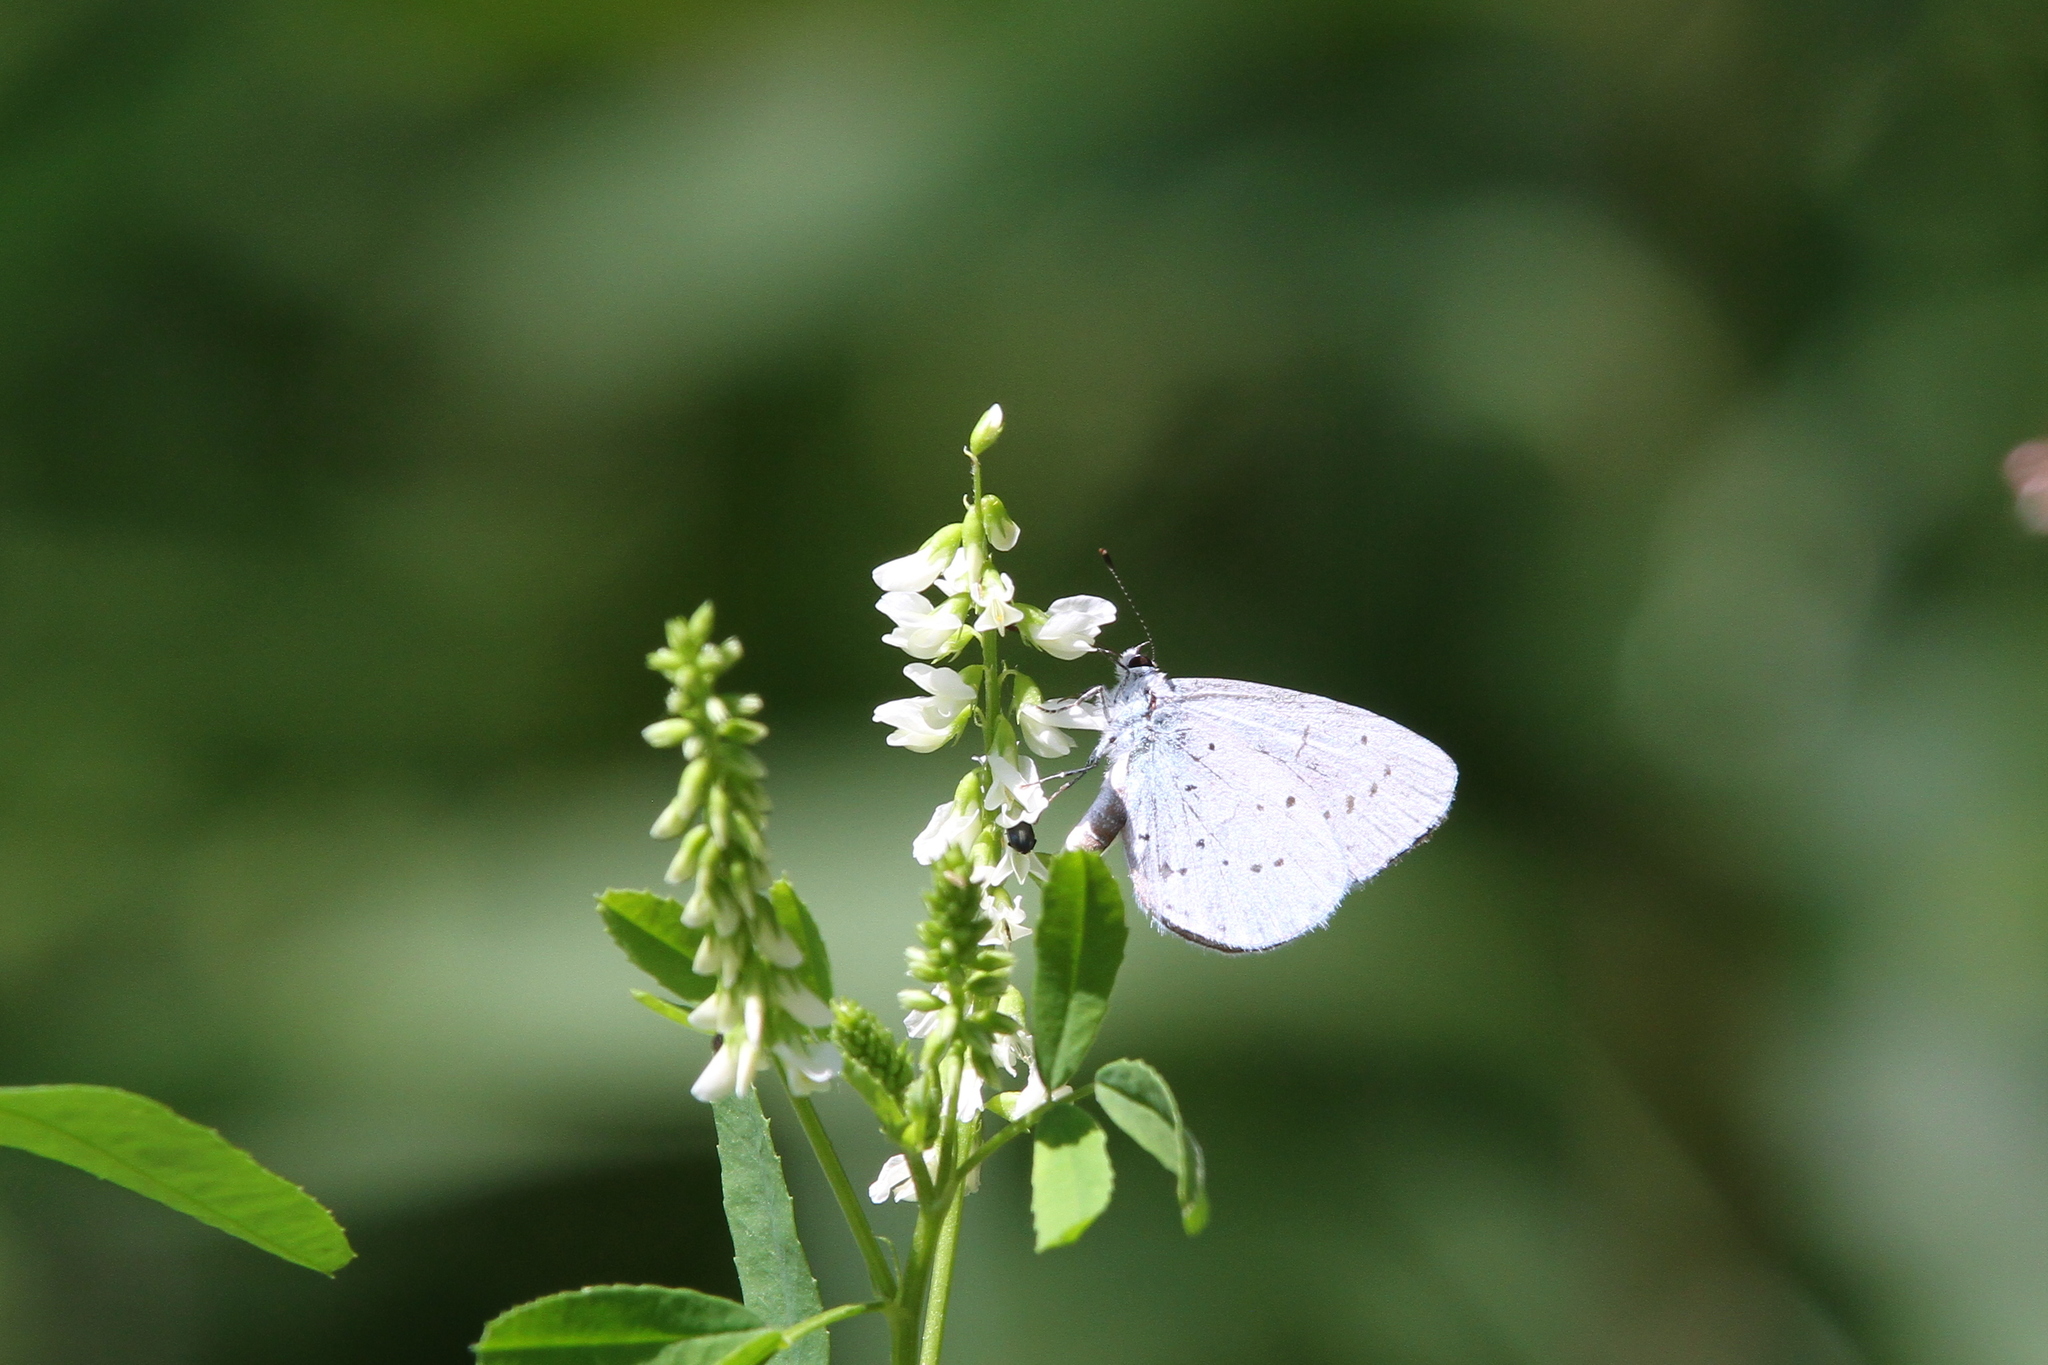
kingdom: Animalia
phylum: Arthropoda
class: Insecta
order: Lepidoptera
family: Lycaenidae
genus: Celastrina
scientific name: Celastrina argiolus
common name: Holly blue
